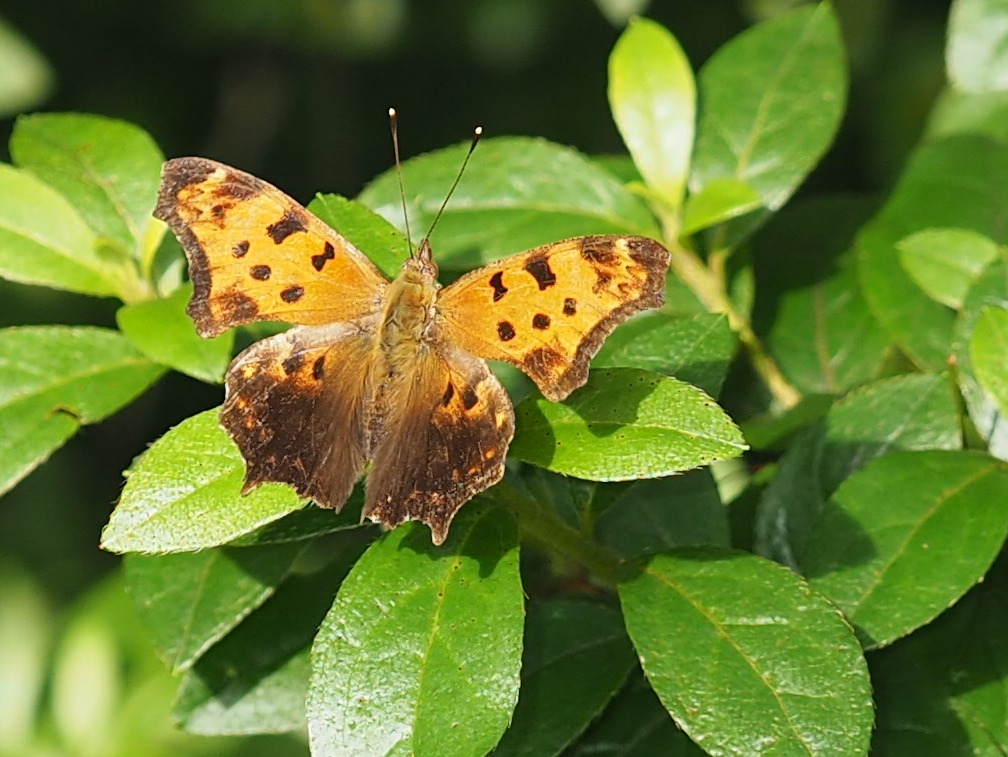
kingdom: Animalia
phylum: Arthropoda
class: Insecta
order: Lepidoptera
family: Nymphalidae
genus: Polygonia
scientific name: Polygonia comma
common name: Eastern comma
